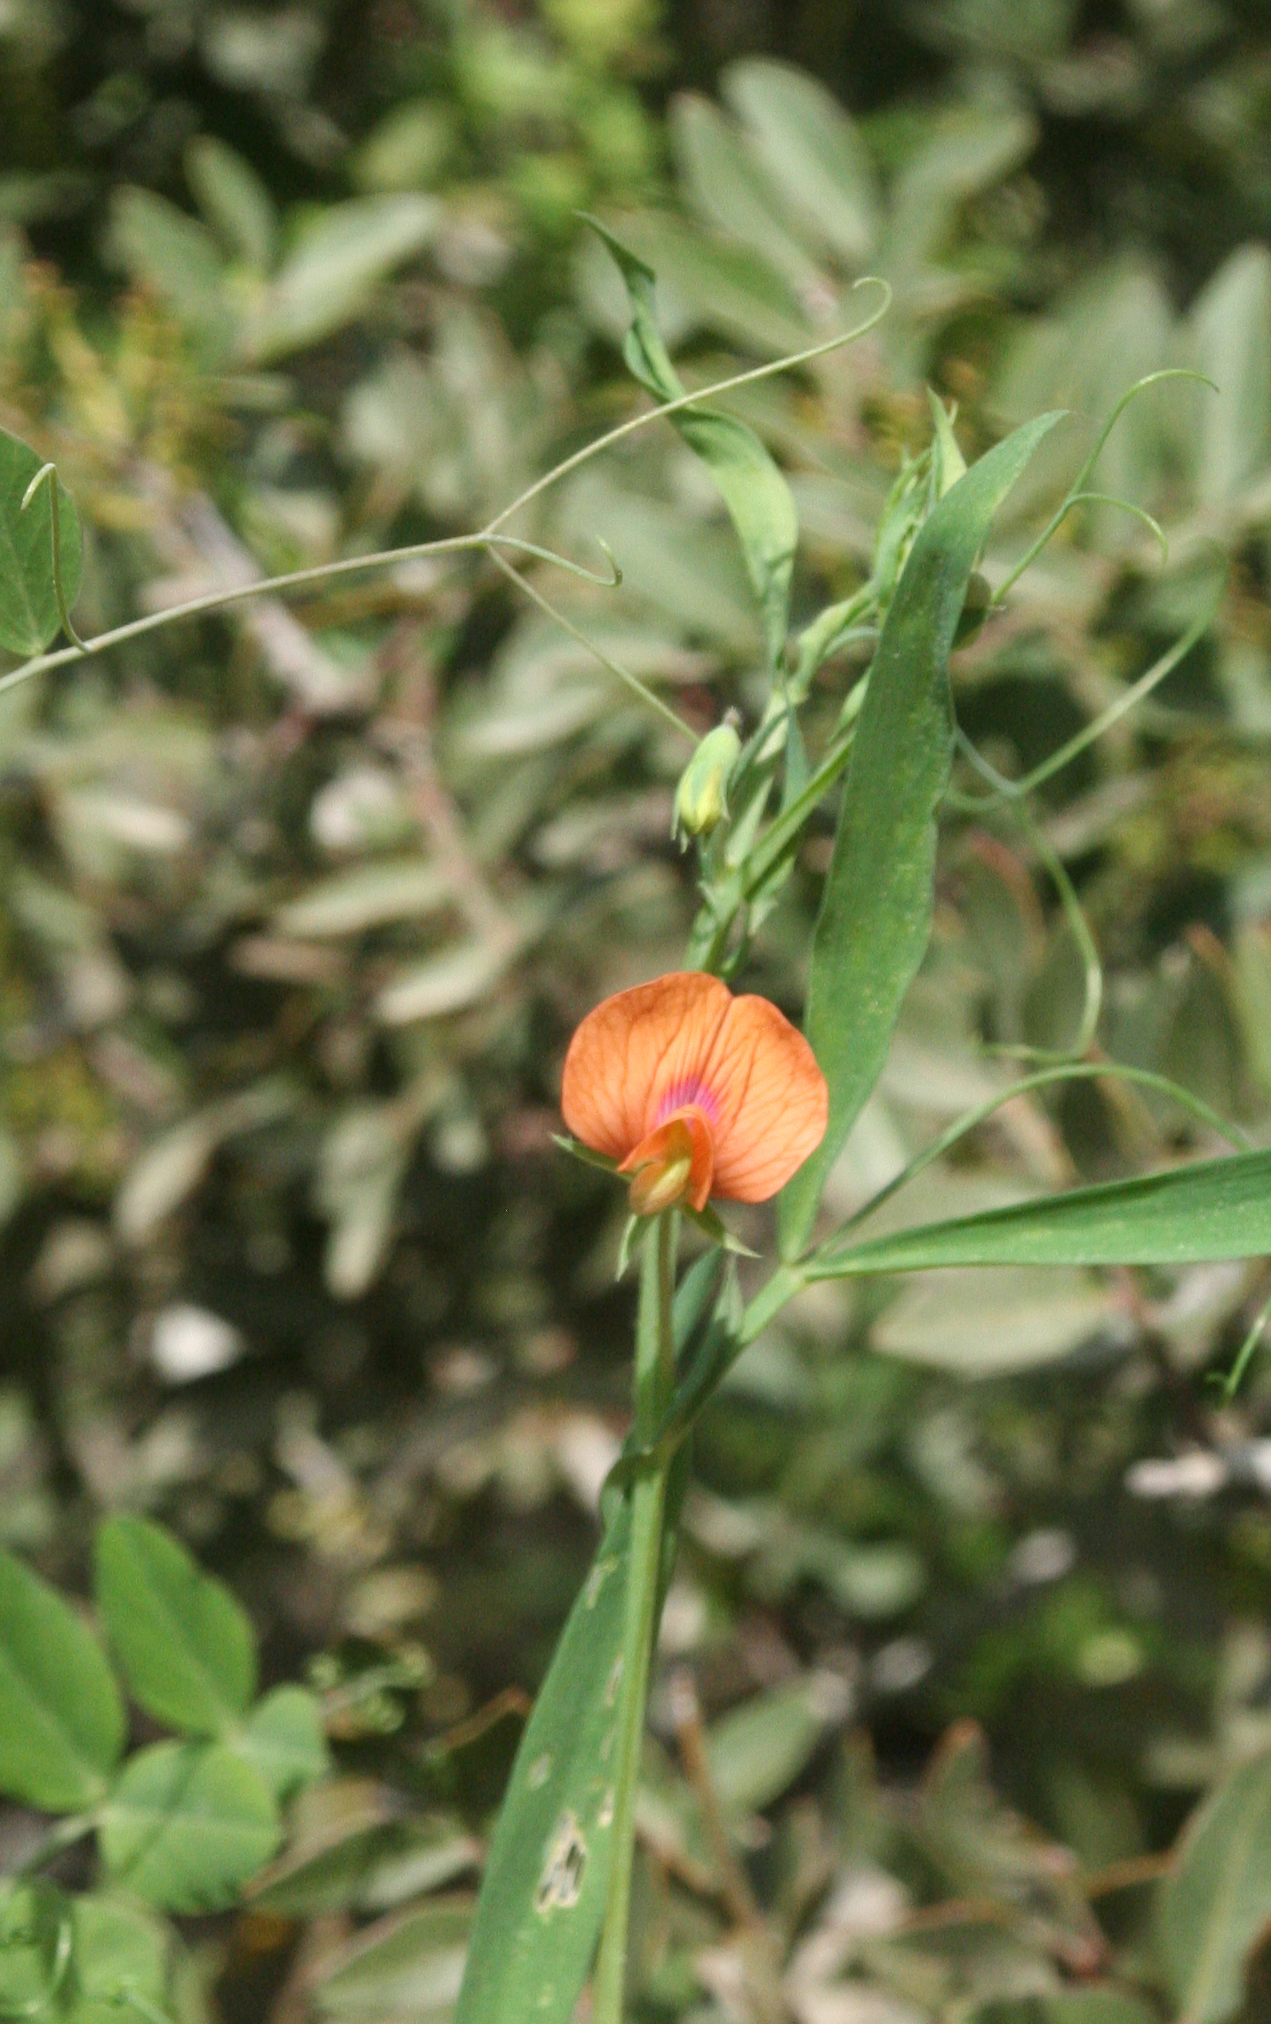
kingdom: Plantae
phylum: Tracheophyta
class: Magnoliopsida
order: Fabales
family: Fabaceae
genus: Lathyrus
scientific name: Lathyrus blepharicarpos
